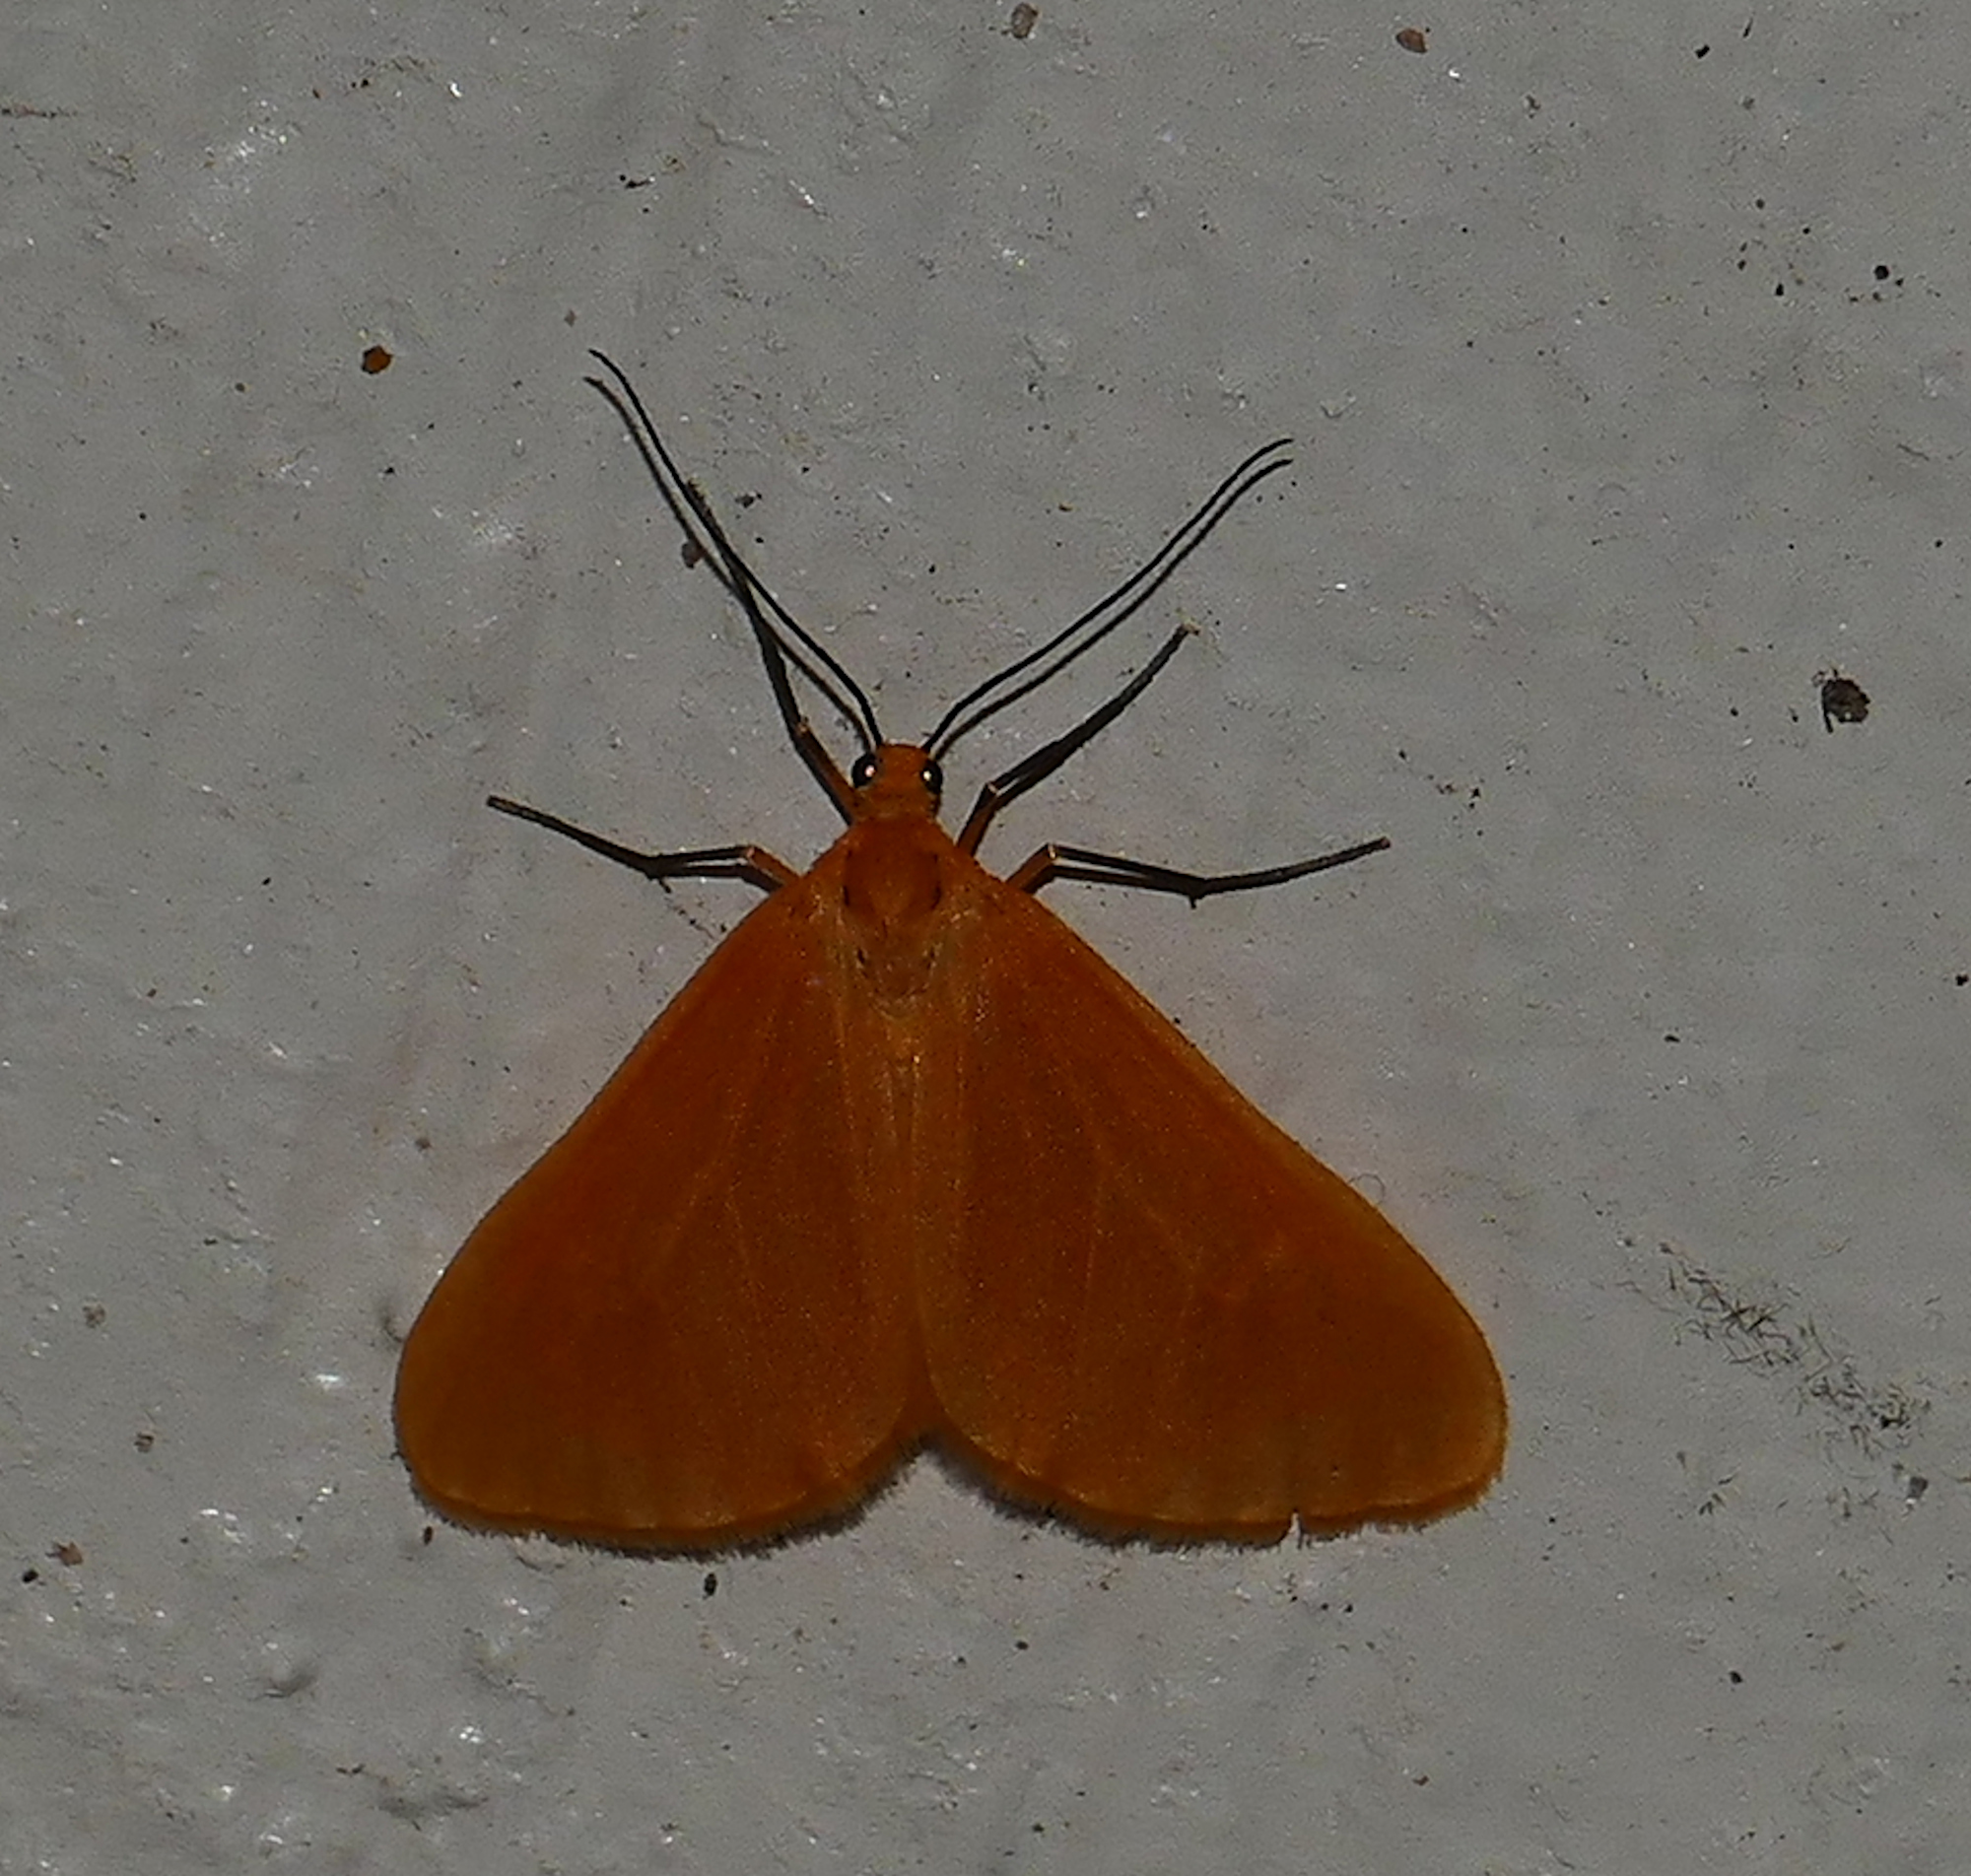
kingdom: Animalia
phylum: Arthropoda
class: Insecta
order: Lepidoptera
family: Geometridae
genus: Eubaphe
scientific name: Eubaphe unicolor
